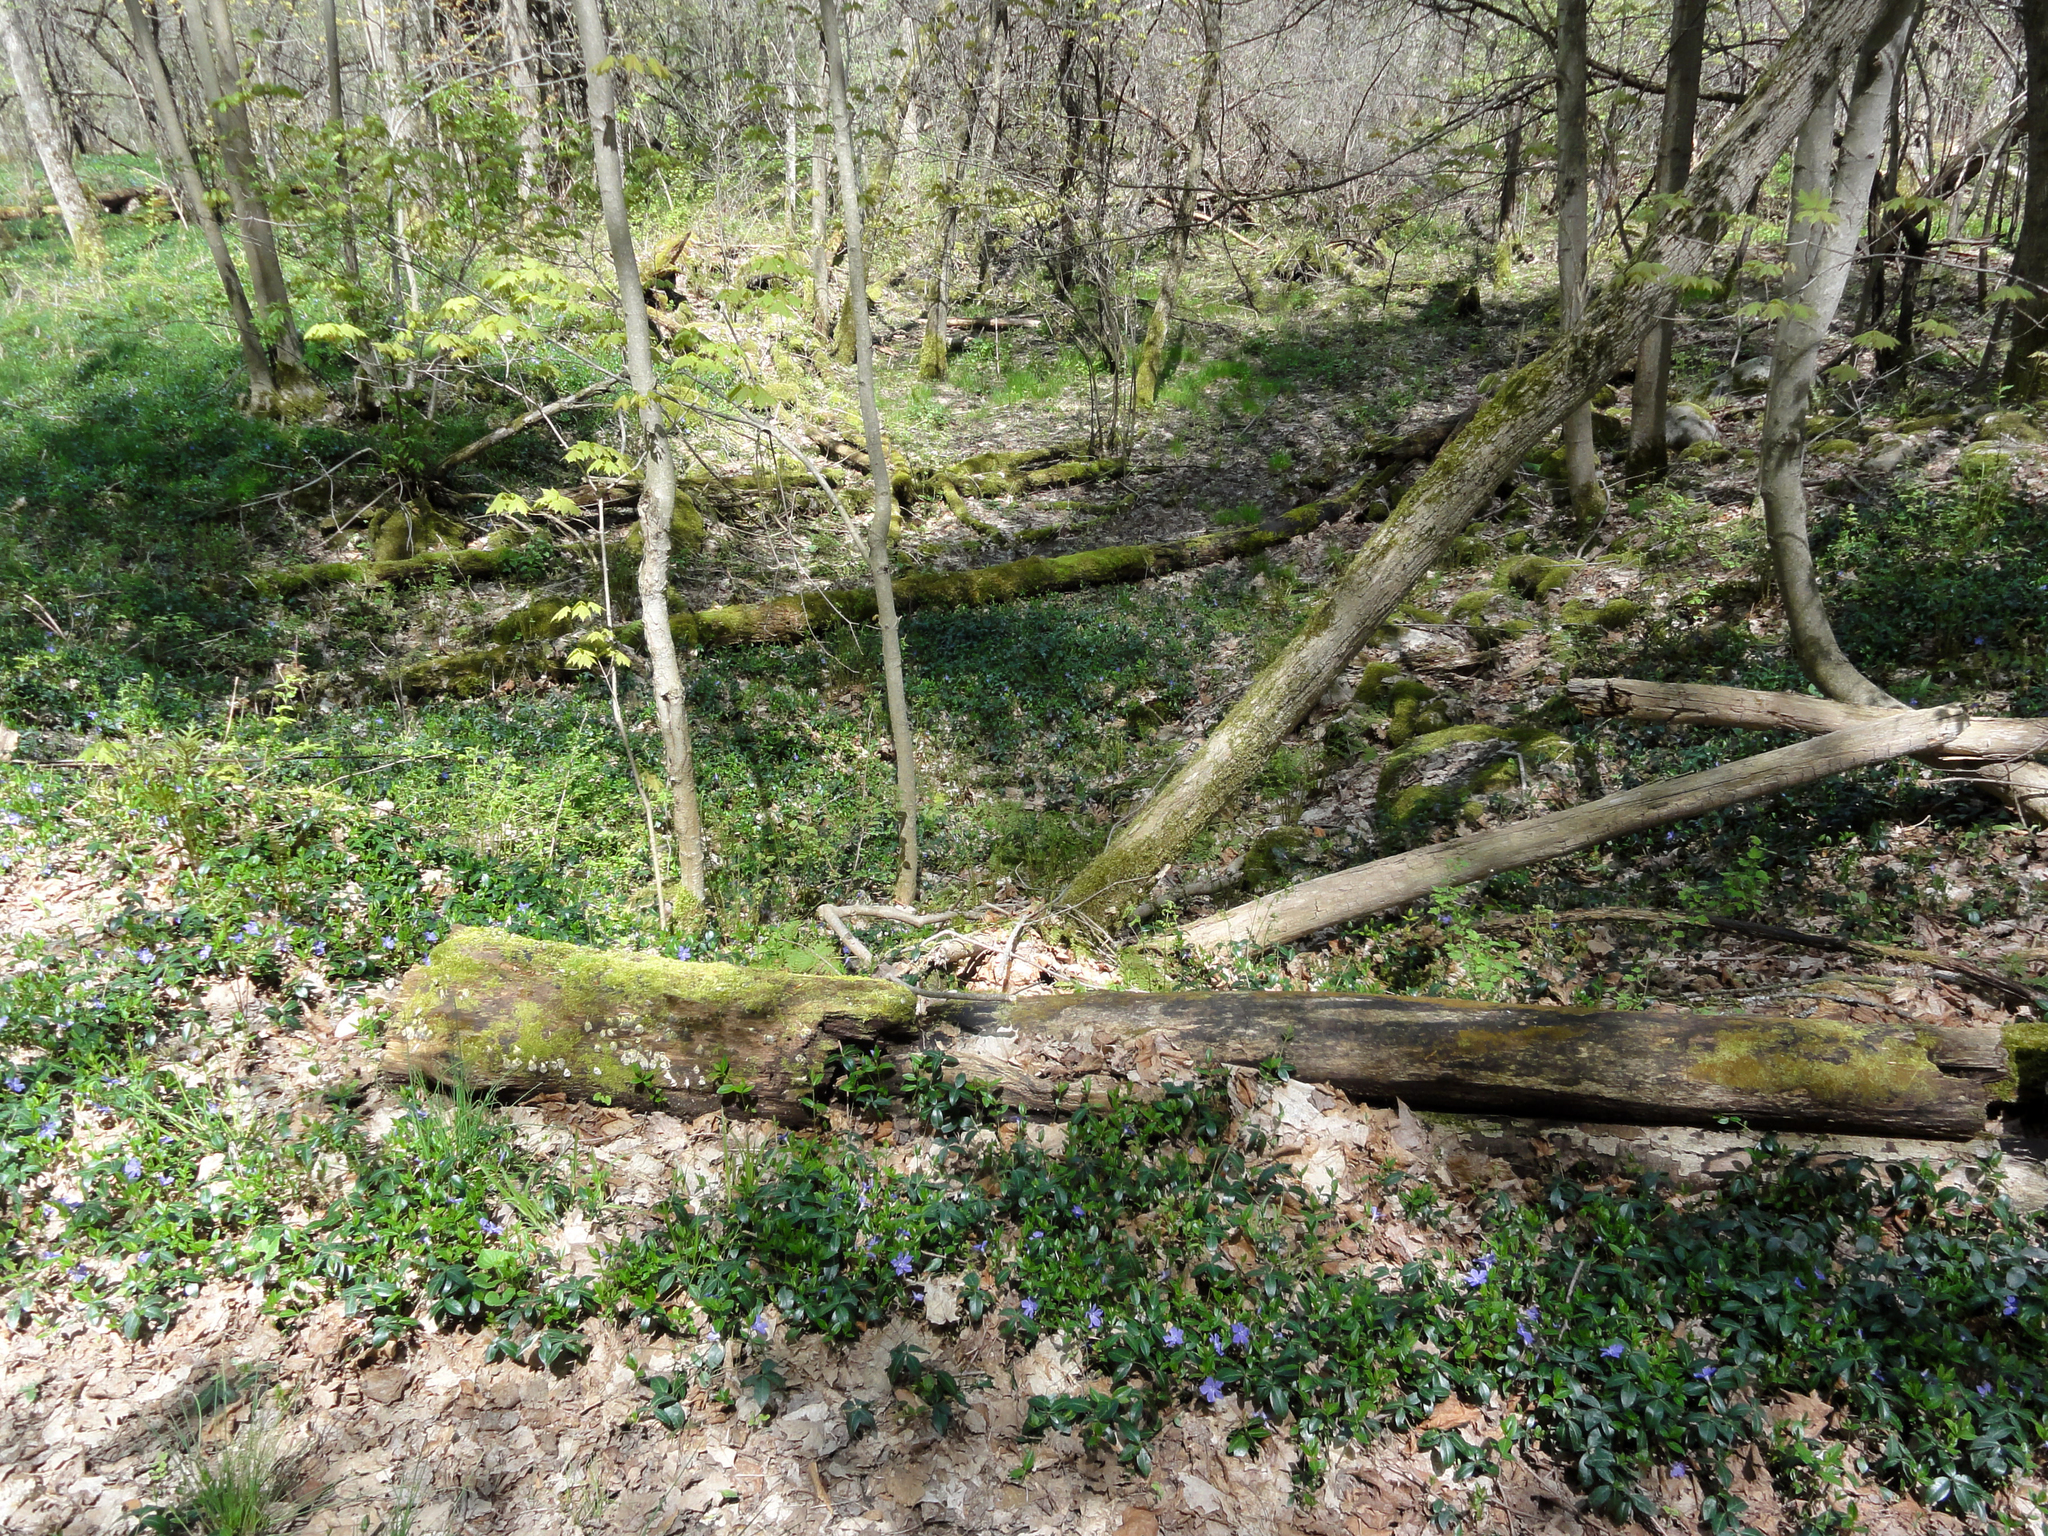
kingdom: Plantae
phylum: Tracheophyta
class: Magnoliopsida
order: Gentianales
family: Apocynaceae
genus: Vinca
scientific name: Vinca minor
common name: Lesser periwinkle
